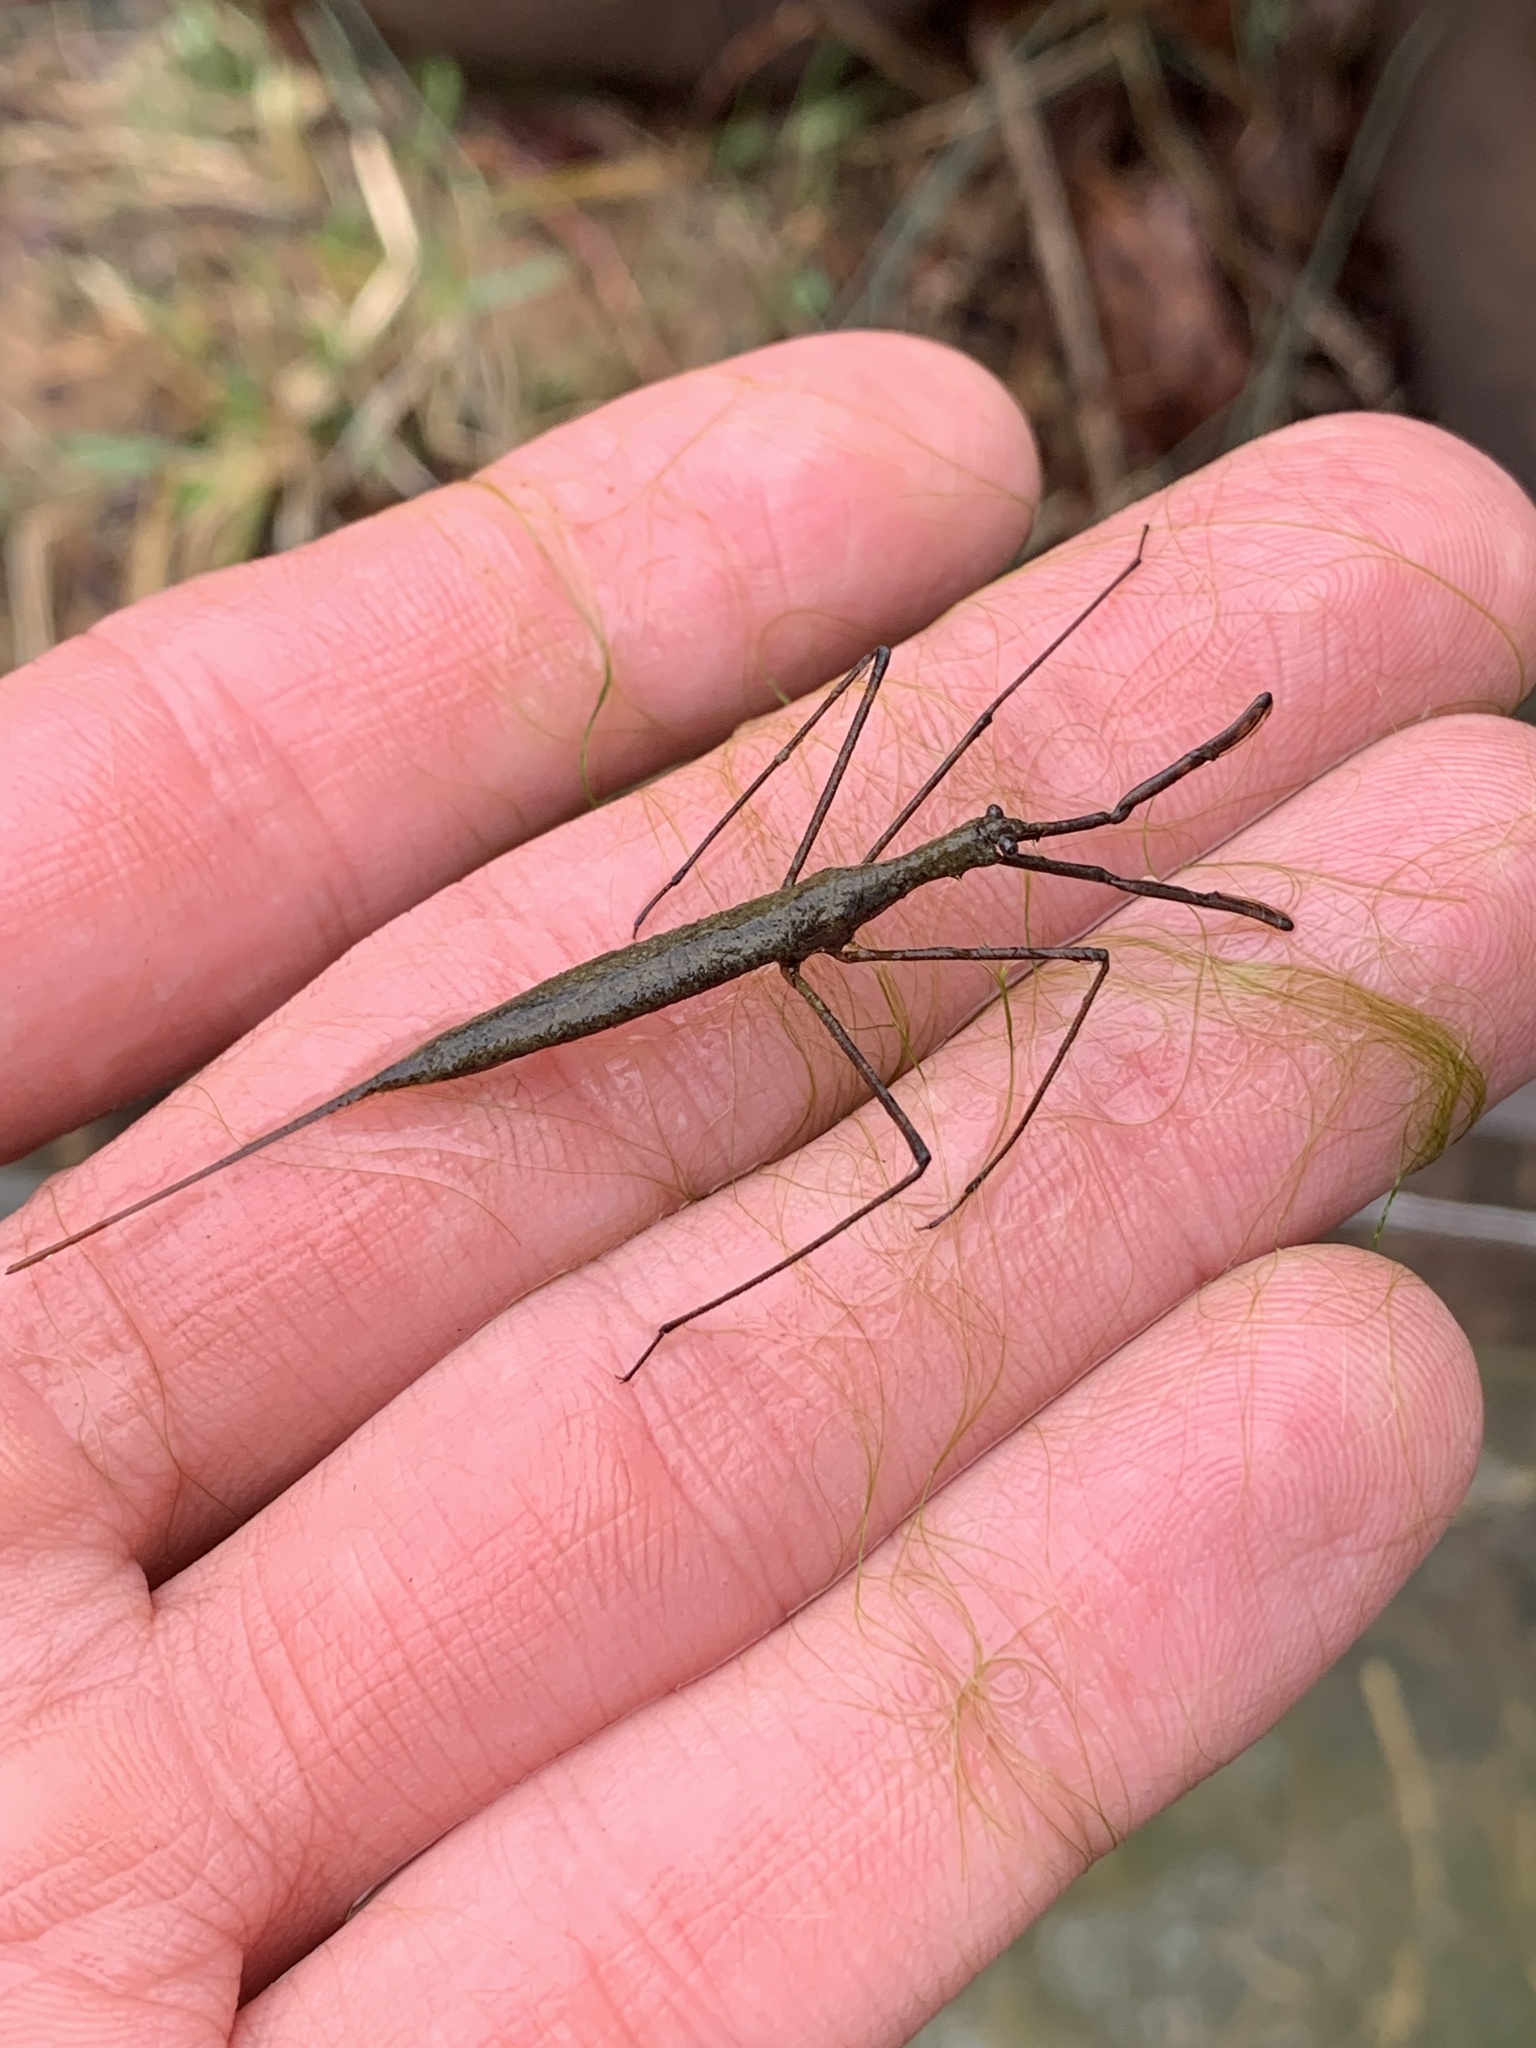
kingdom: Animalia
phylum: Arthropoda
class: Insecta
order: Hemiptera
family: Nepidae
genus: Ranatra
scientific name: Ranatra kirkaldyi
